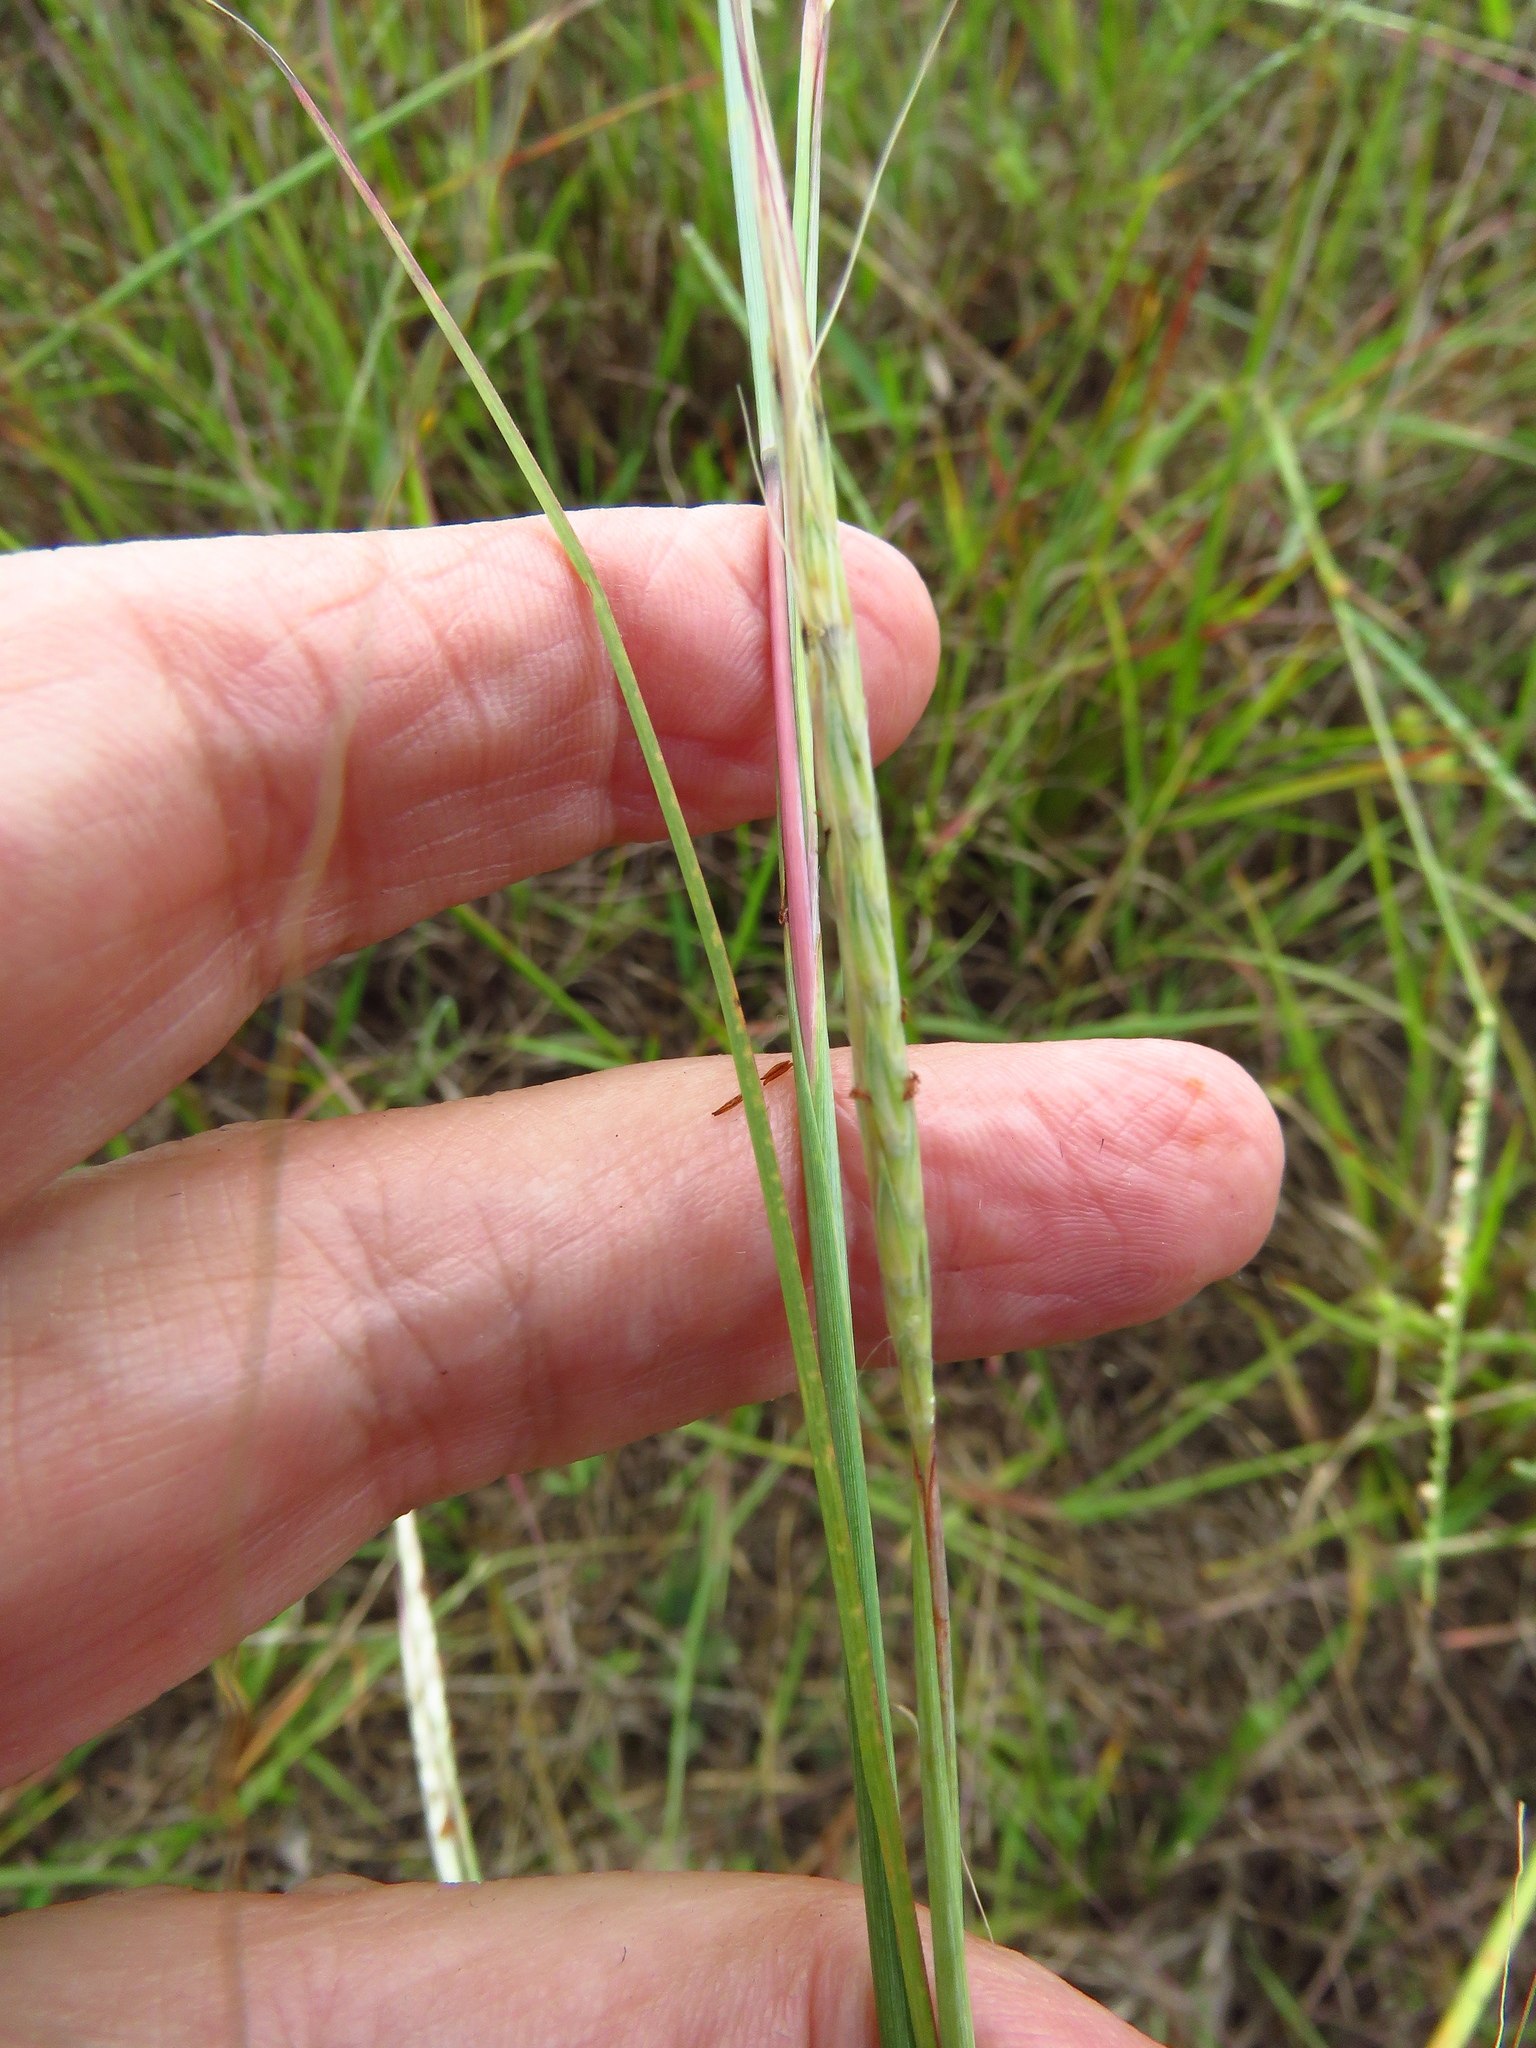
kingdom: Plantae
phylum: Tracheophyta
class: Liliopsida
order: Poales
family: Poaceae
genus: Andropogon
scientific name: Andropogon ternarius
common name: Split bluestem
